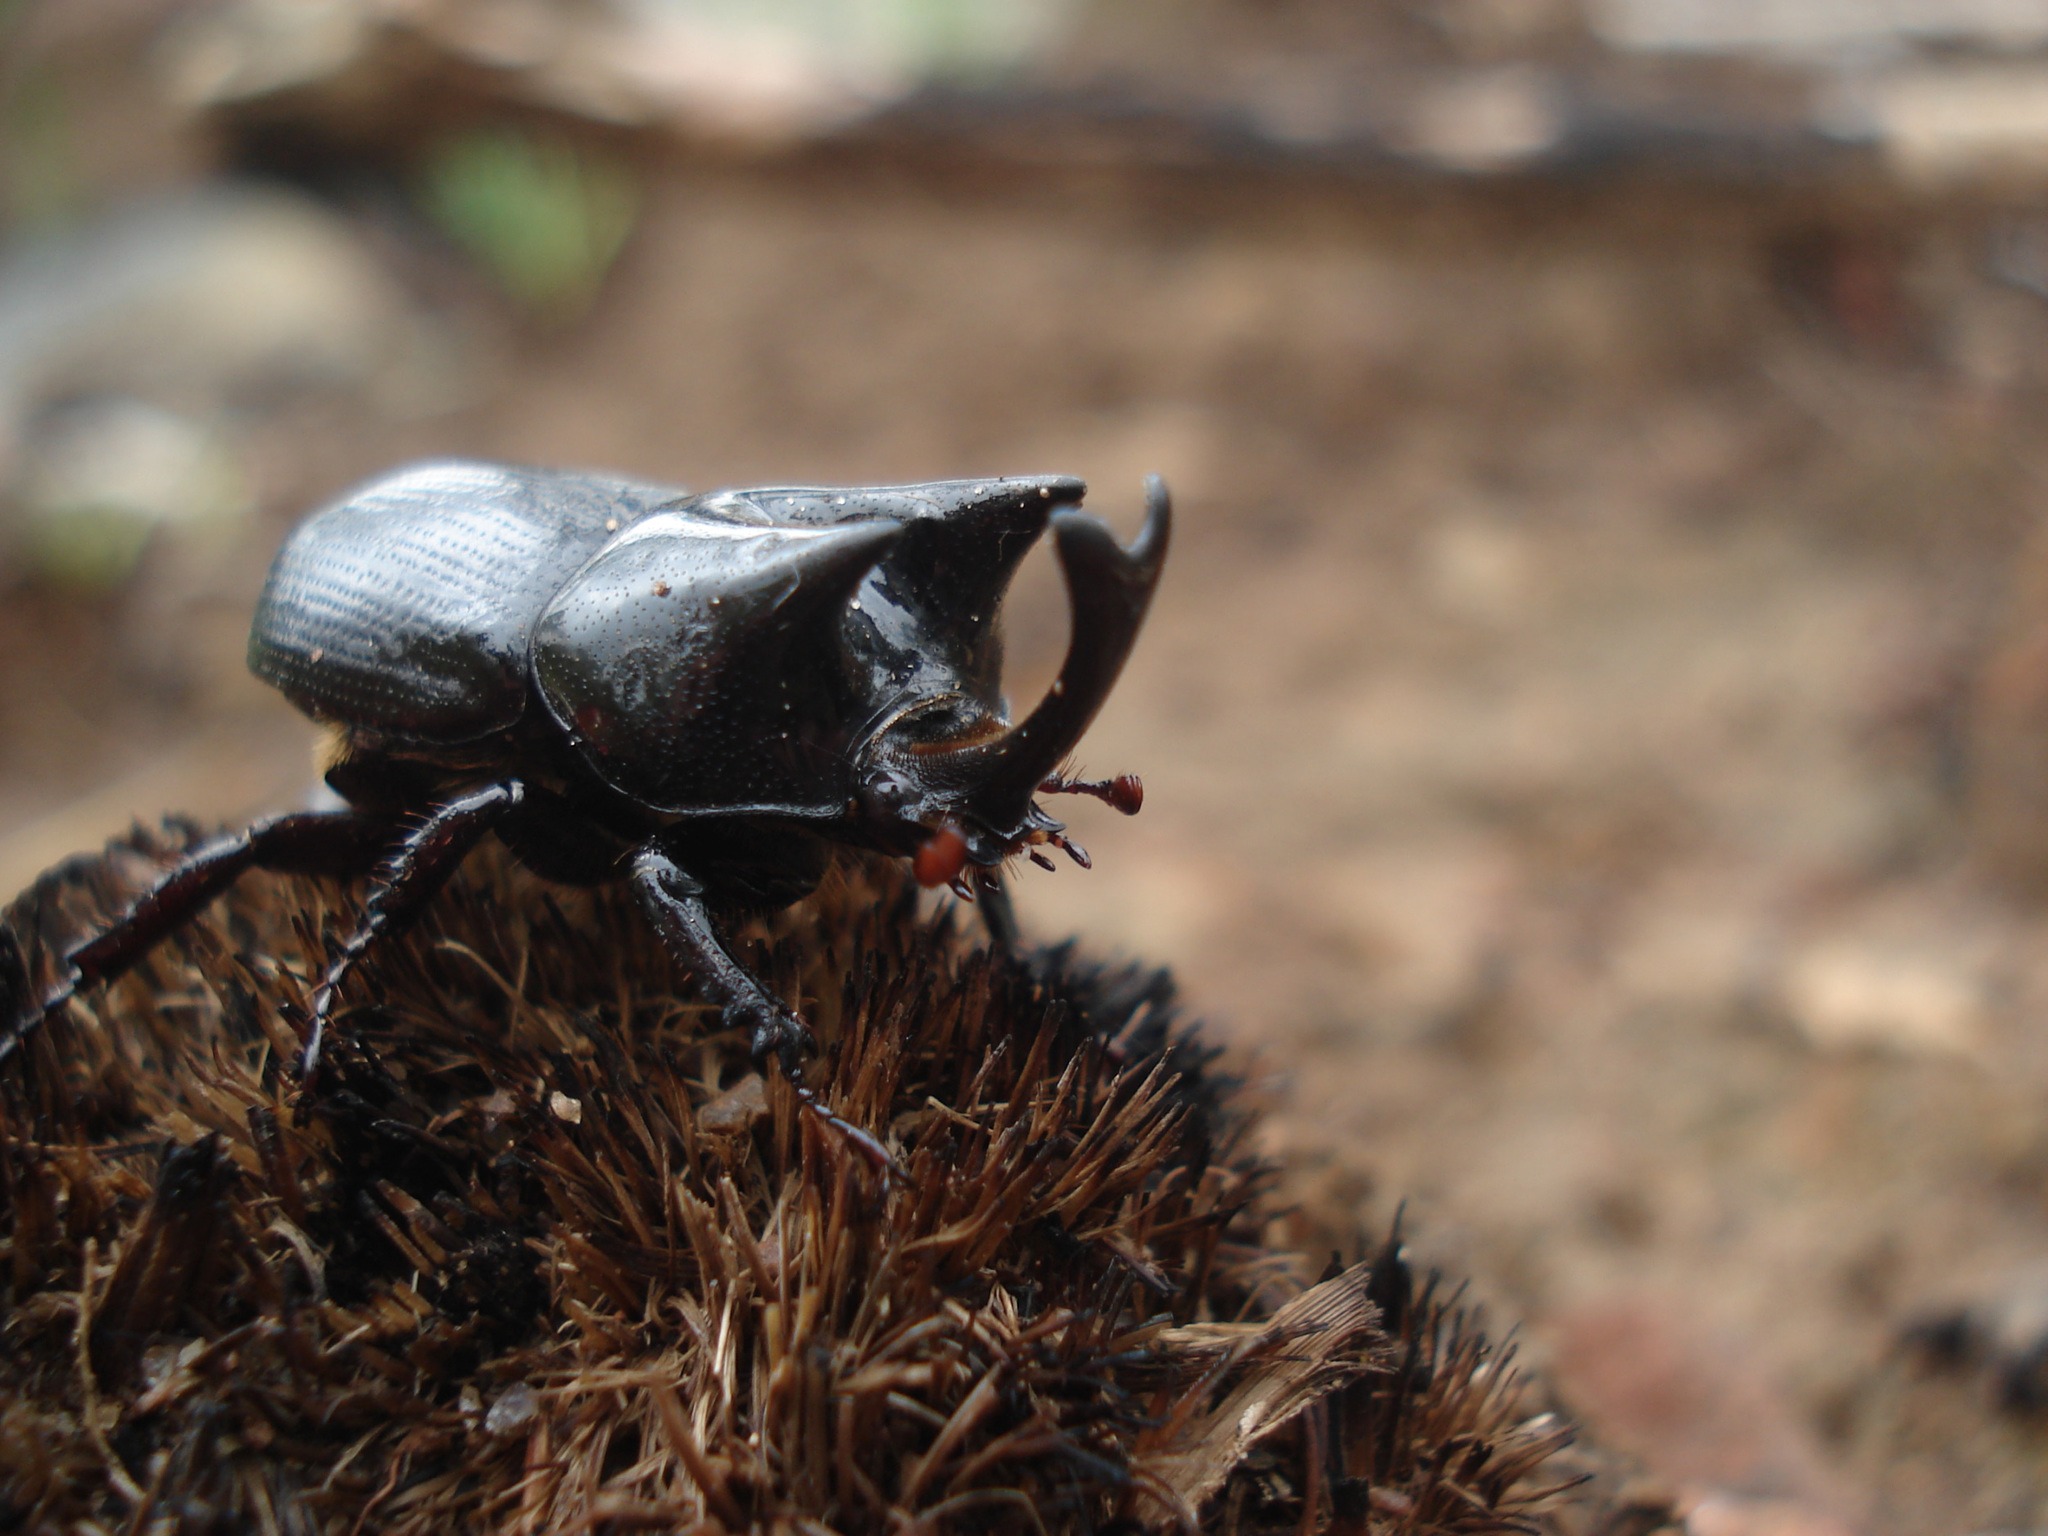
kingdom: Animalia
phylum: Arthropoda
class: Insecta
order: Coleoptera
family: Scarabaeidae
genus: Xenodorus
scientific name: Xenodorus janus
